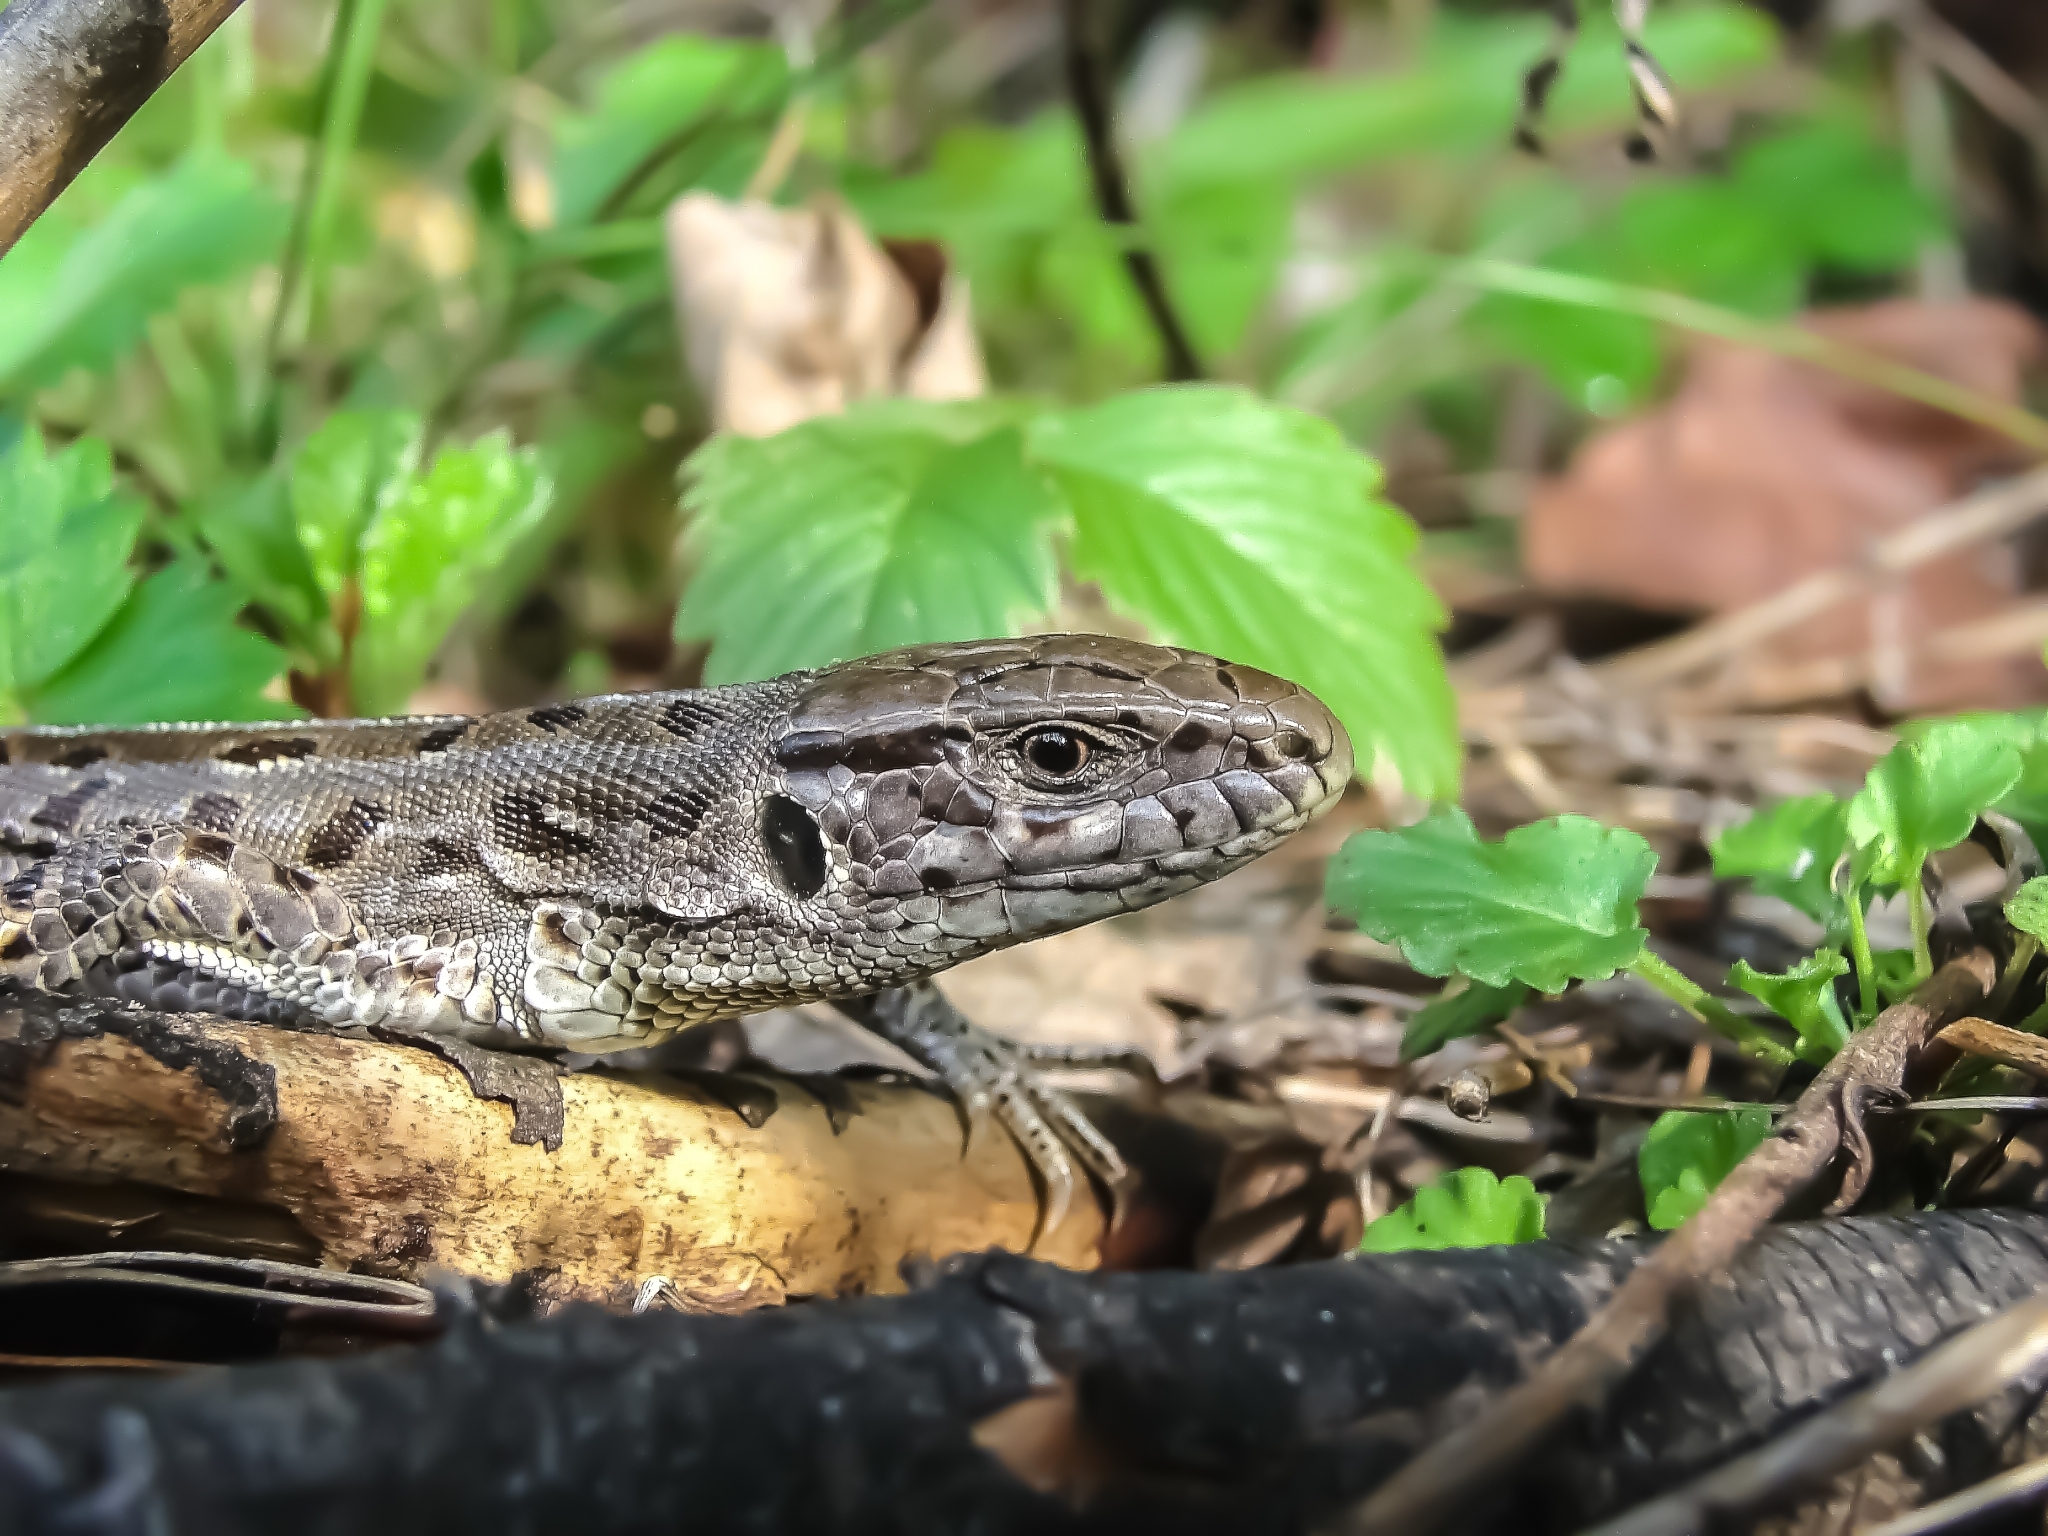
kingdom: Animalia
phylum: Chordata
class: Squamata
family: Lacertidae
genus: Lacerta
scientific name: Lacerta agilis
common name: Sand lizard
